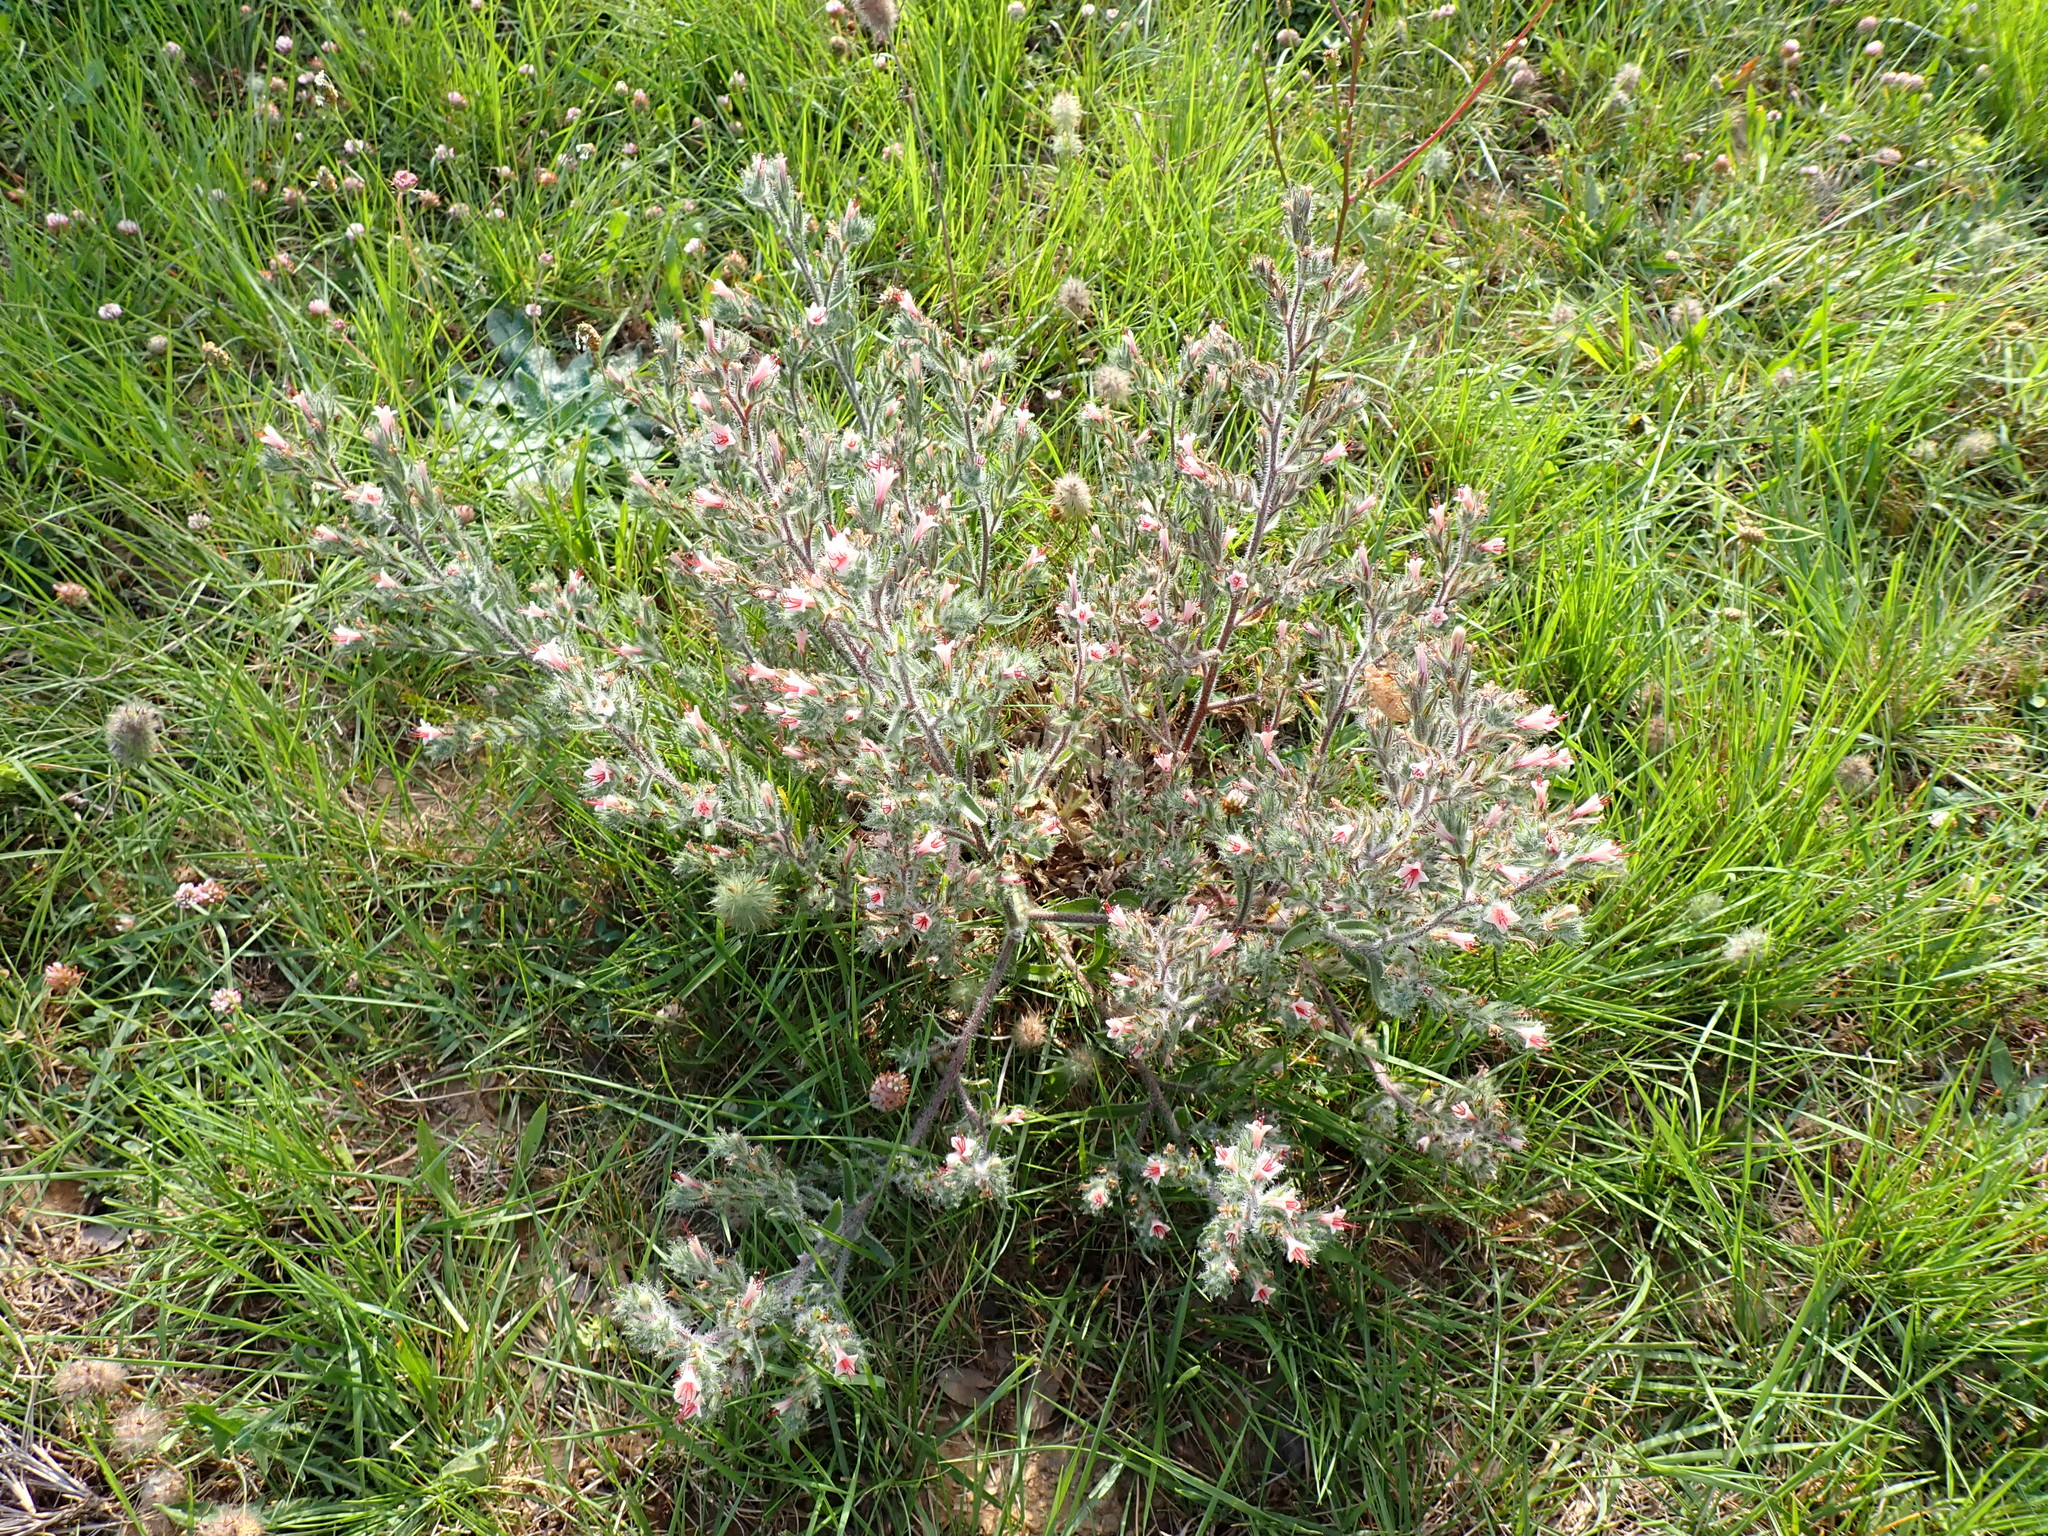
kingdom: Plantae
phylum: Tracheophyta
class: Magnoliopsida
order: Boraginales
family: Boraginaceae
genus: Echium
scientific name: Echium asperrimum
